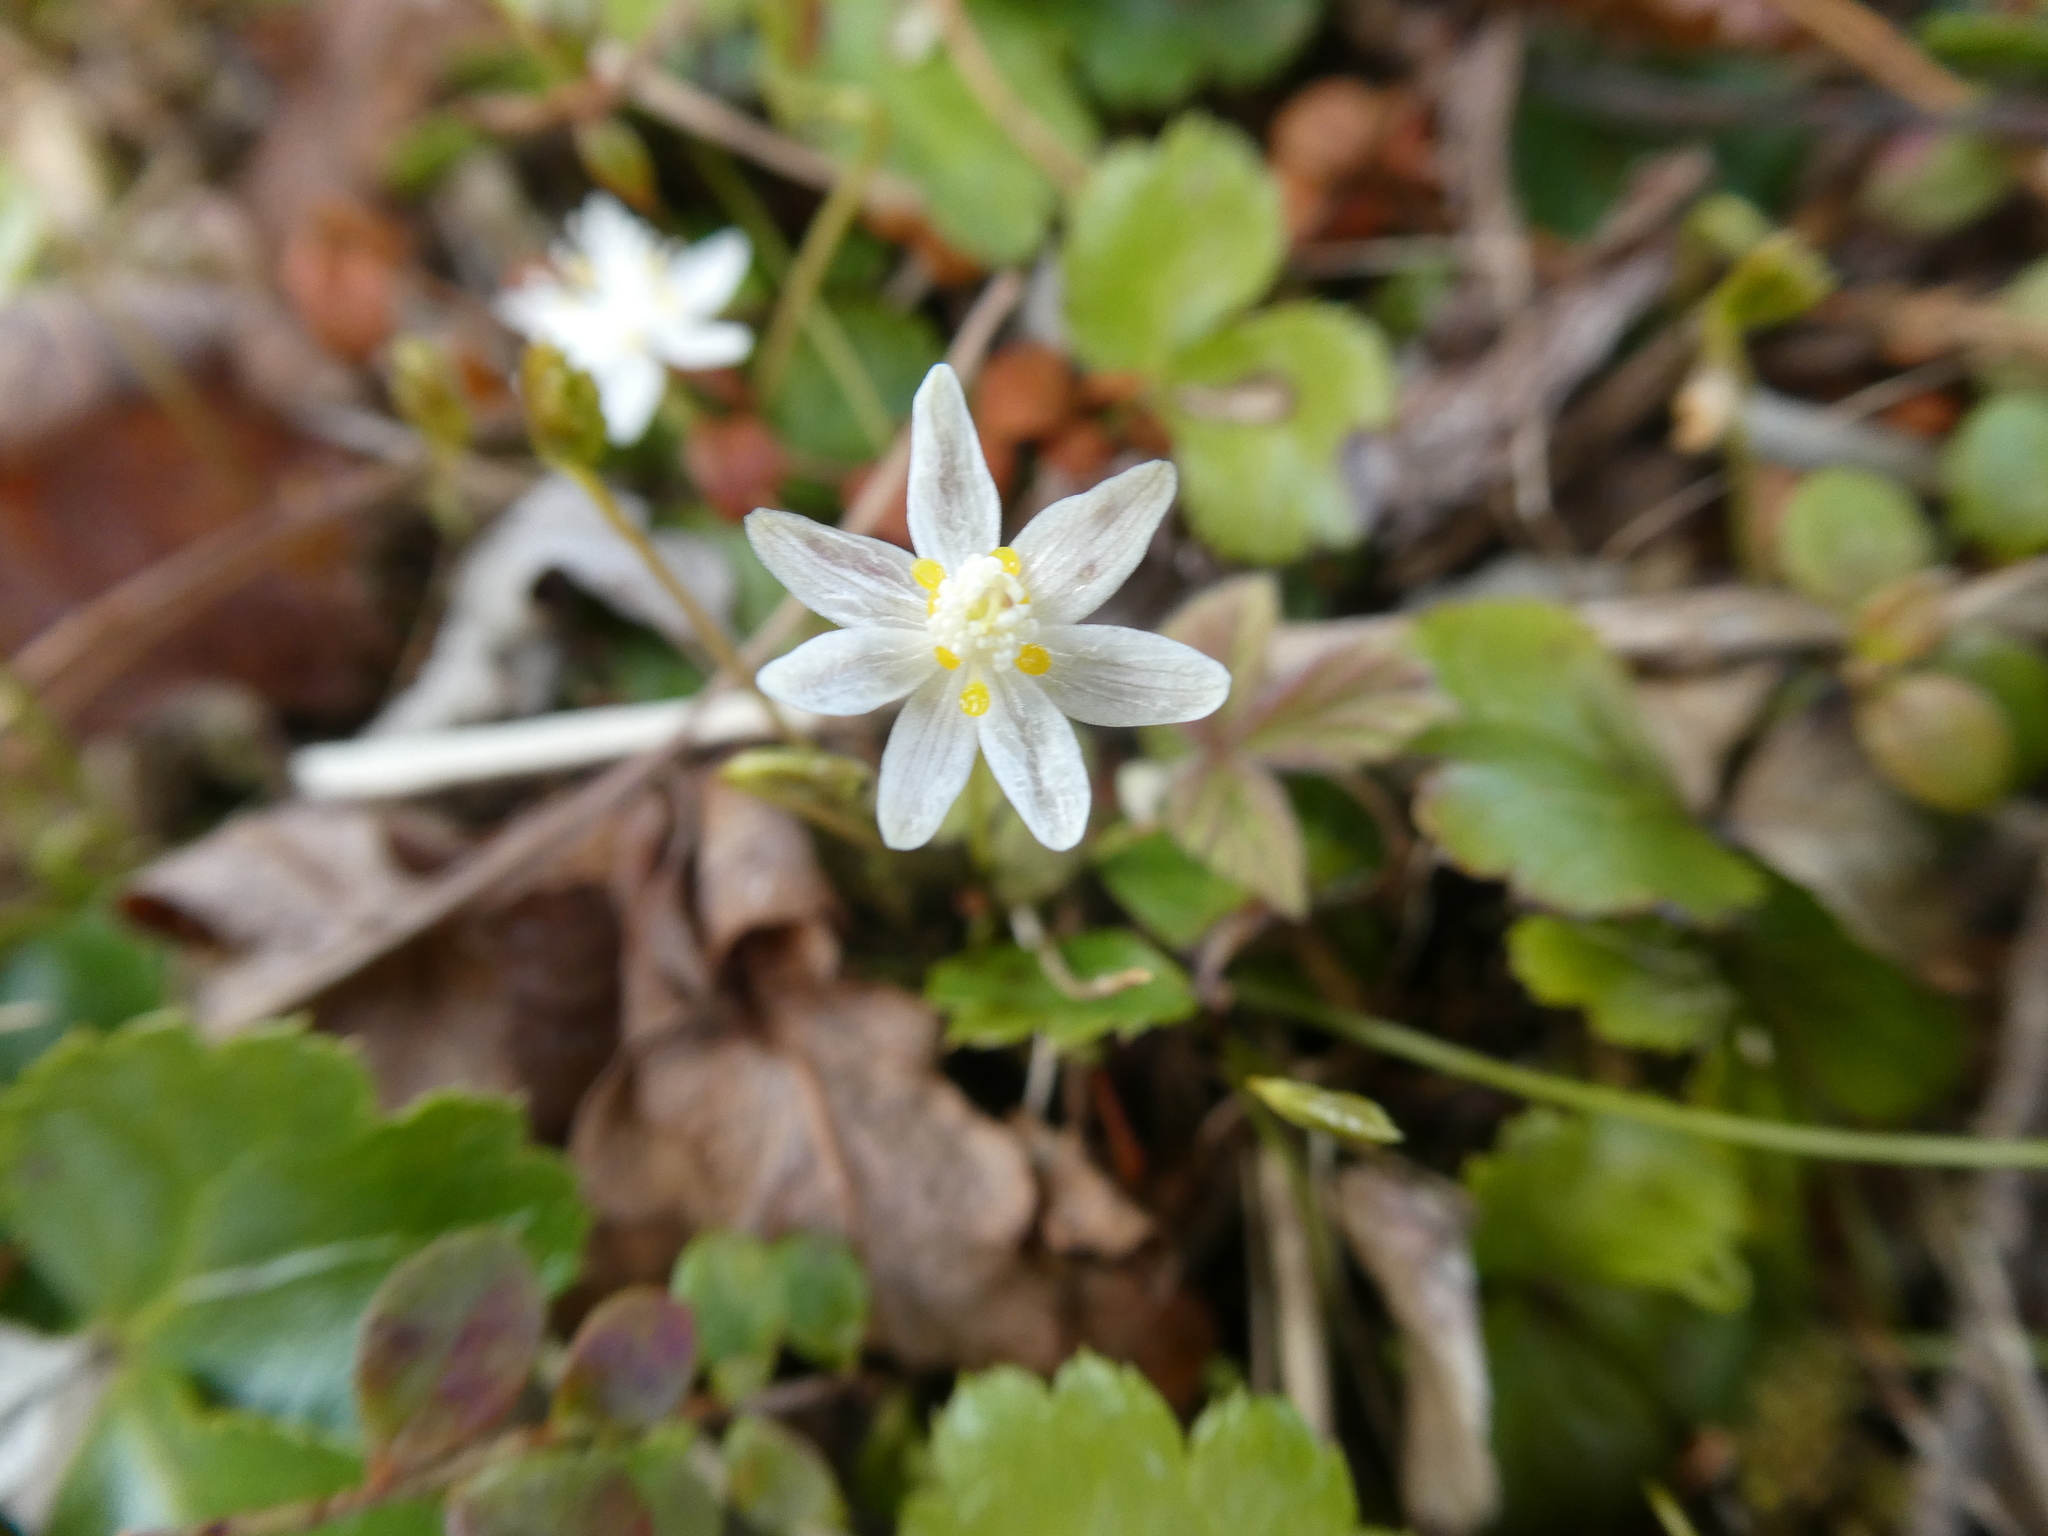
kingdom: Plantae
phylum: Tracheophyta
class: Magnoliopsida
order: Ranunculales
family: Ranunculaceae
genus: Coptis
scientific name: Coptis trifolia
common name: Canker-root
